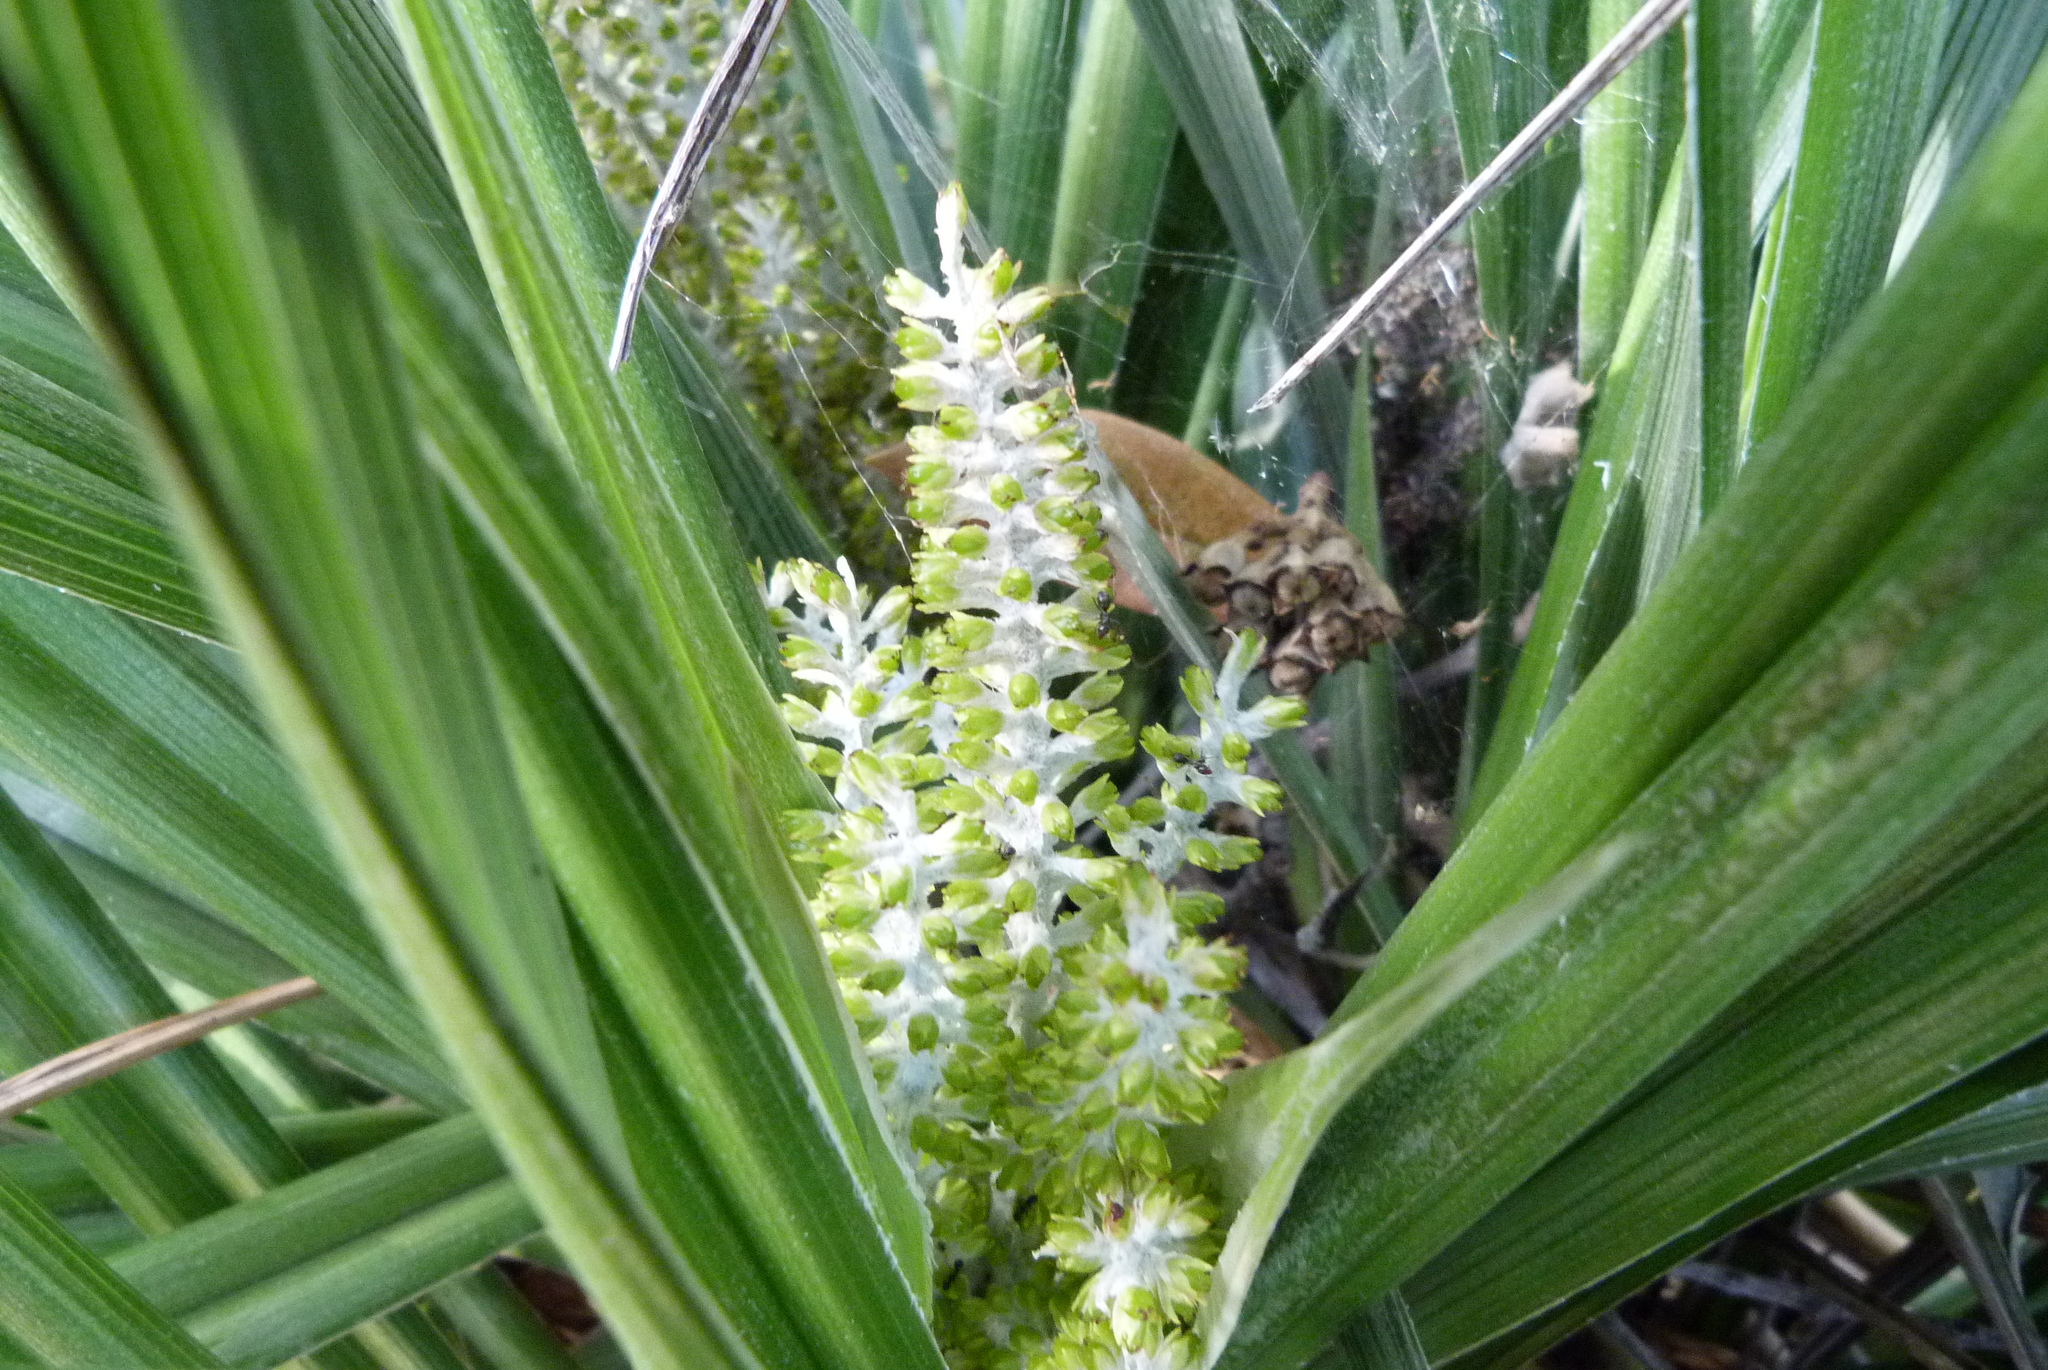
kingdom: Plantae
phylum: Tracheophyta
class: Liliopsida
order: Asparagales
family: Asteliaceae
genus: Astelia
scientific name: Astelia banksii
